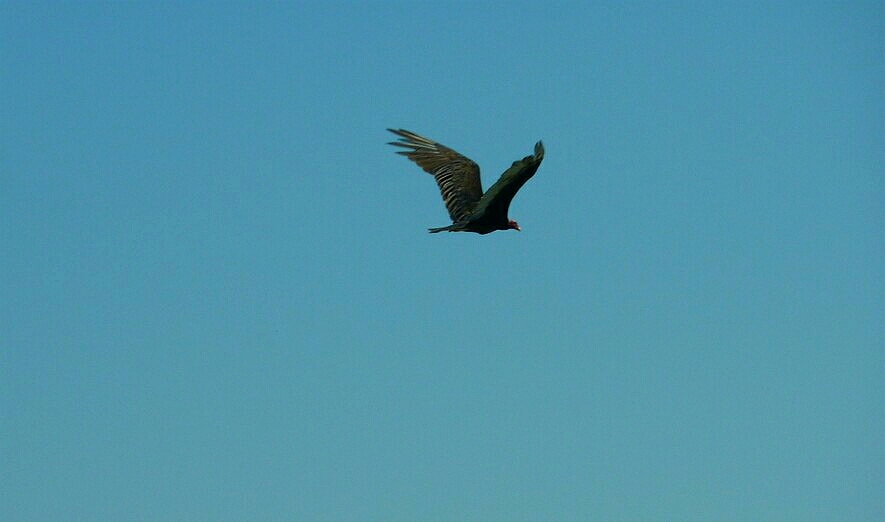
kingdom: Animalia
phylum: Chordata
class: Aves
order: Accipitriformes
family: Cathartidae
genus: Cathartes
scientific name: Cathartes aura
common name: Turkey vulture
